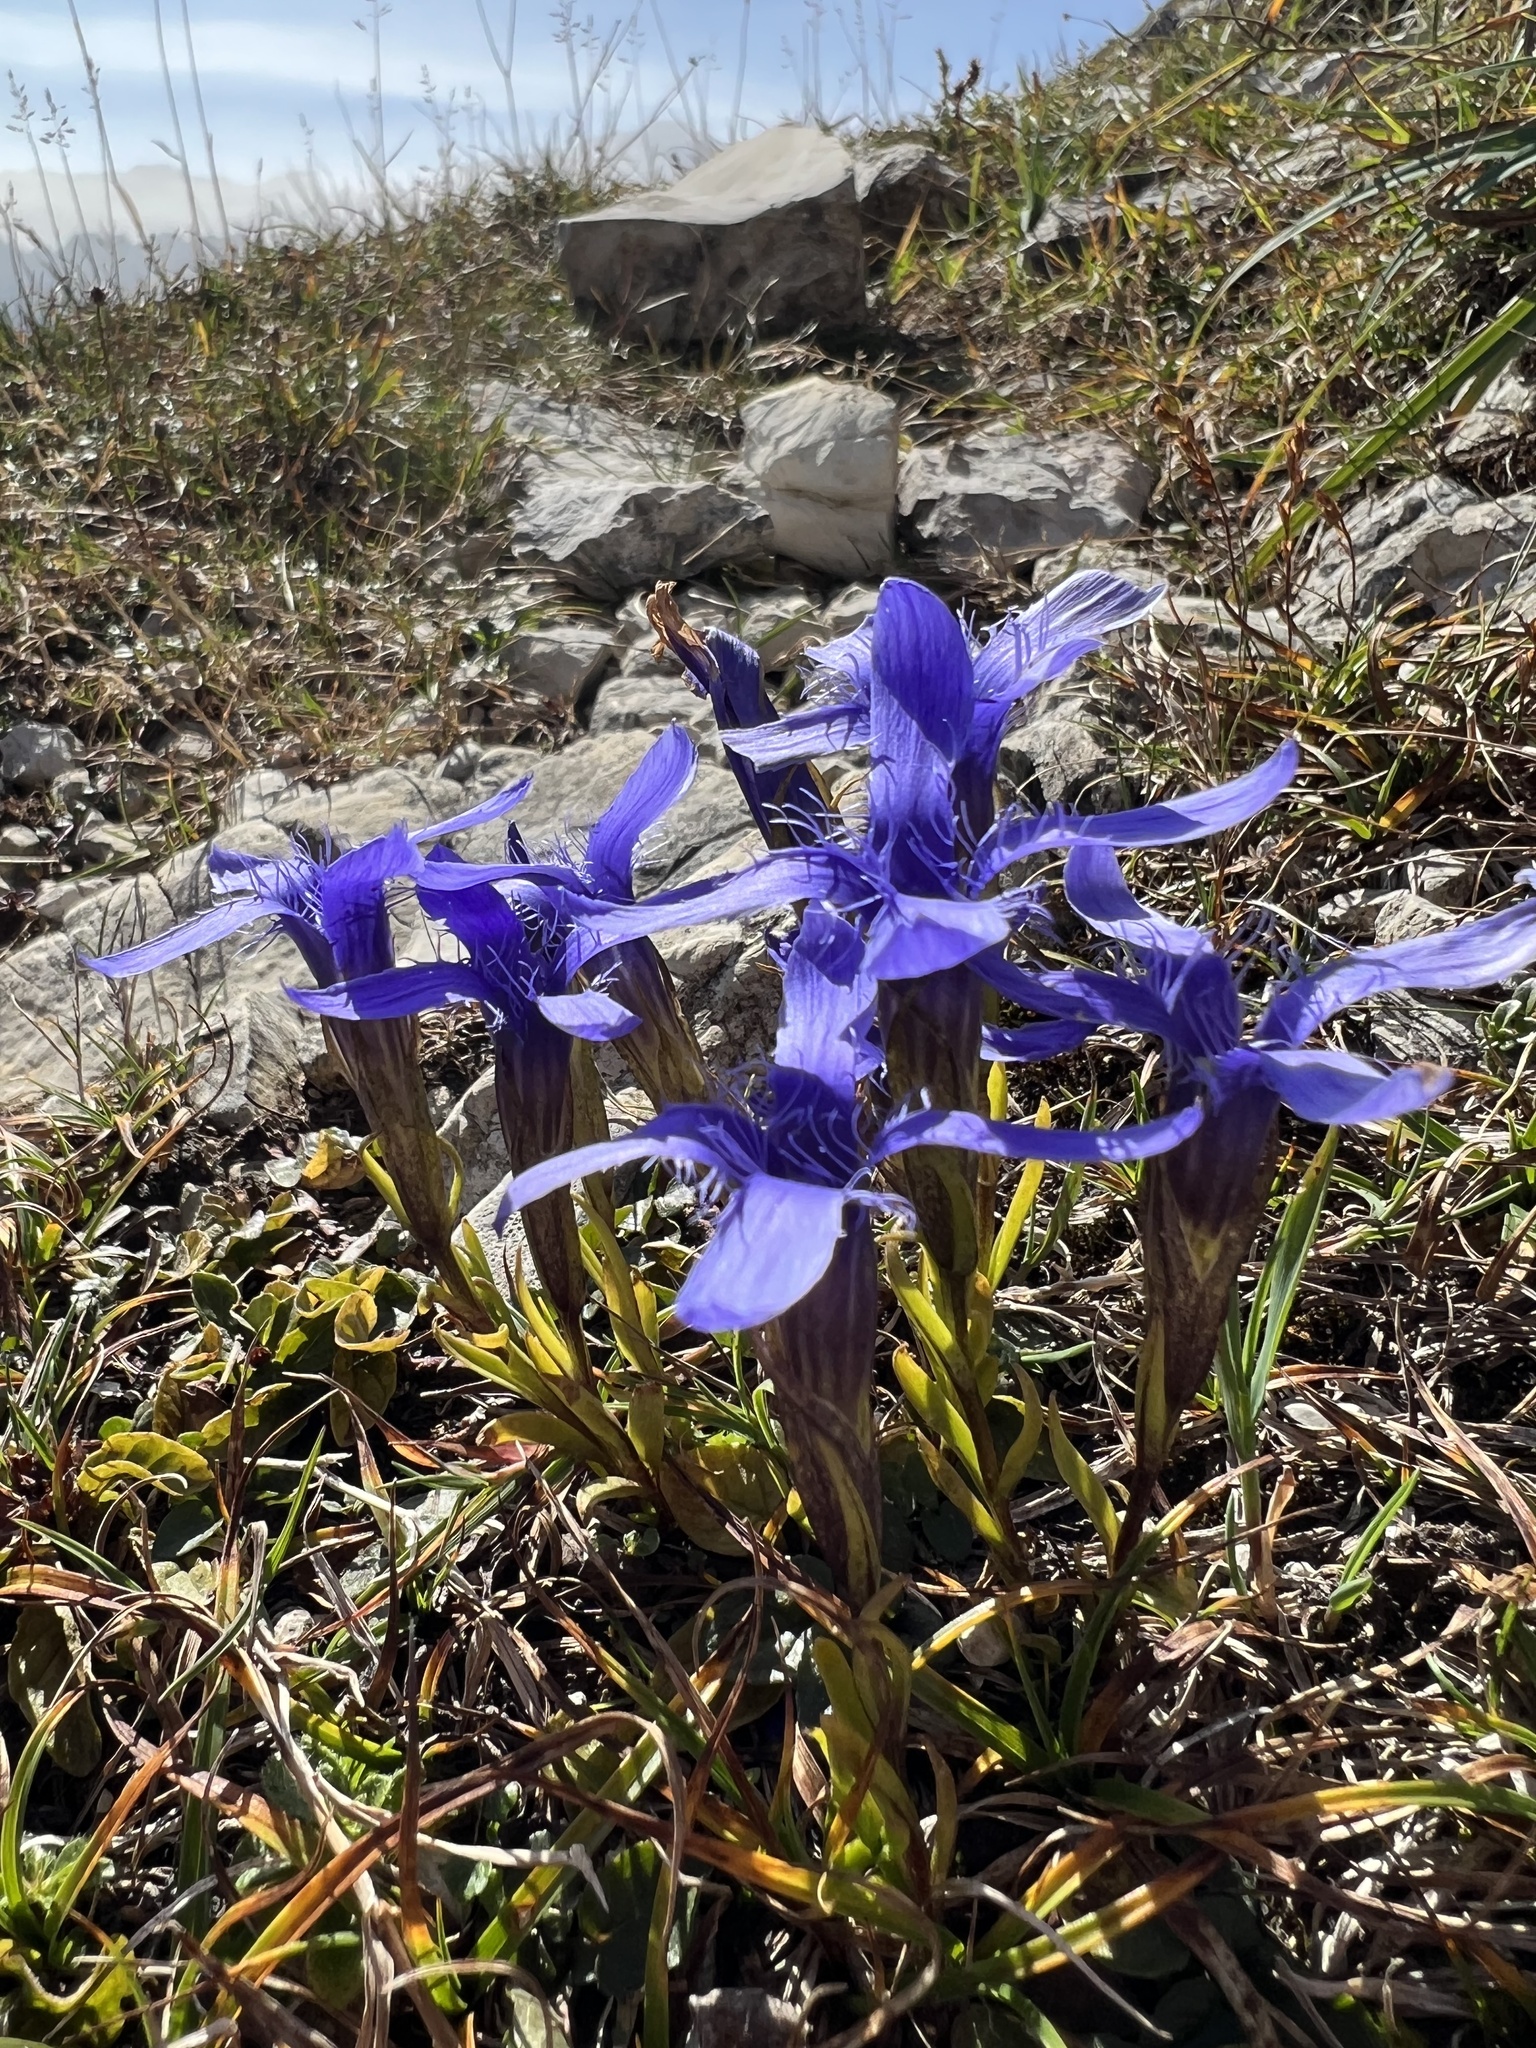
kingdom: Plantae
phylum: Tracheophyta
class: Magnoliopsida
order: Gentianales
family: Gentianaceae
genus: Gentianopsis
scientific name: Gentianopsis ciliata
